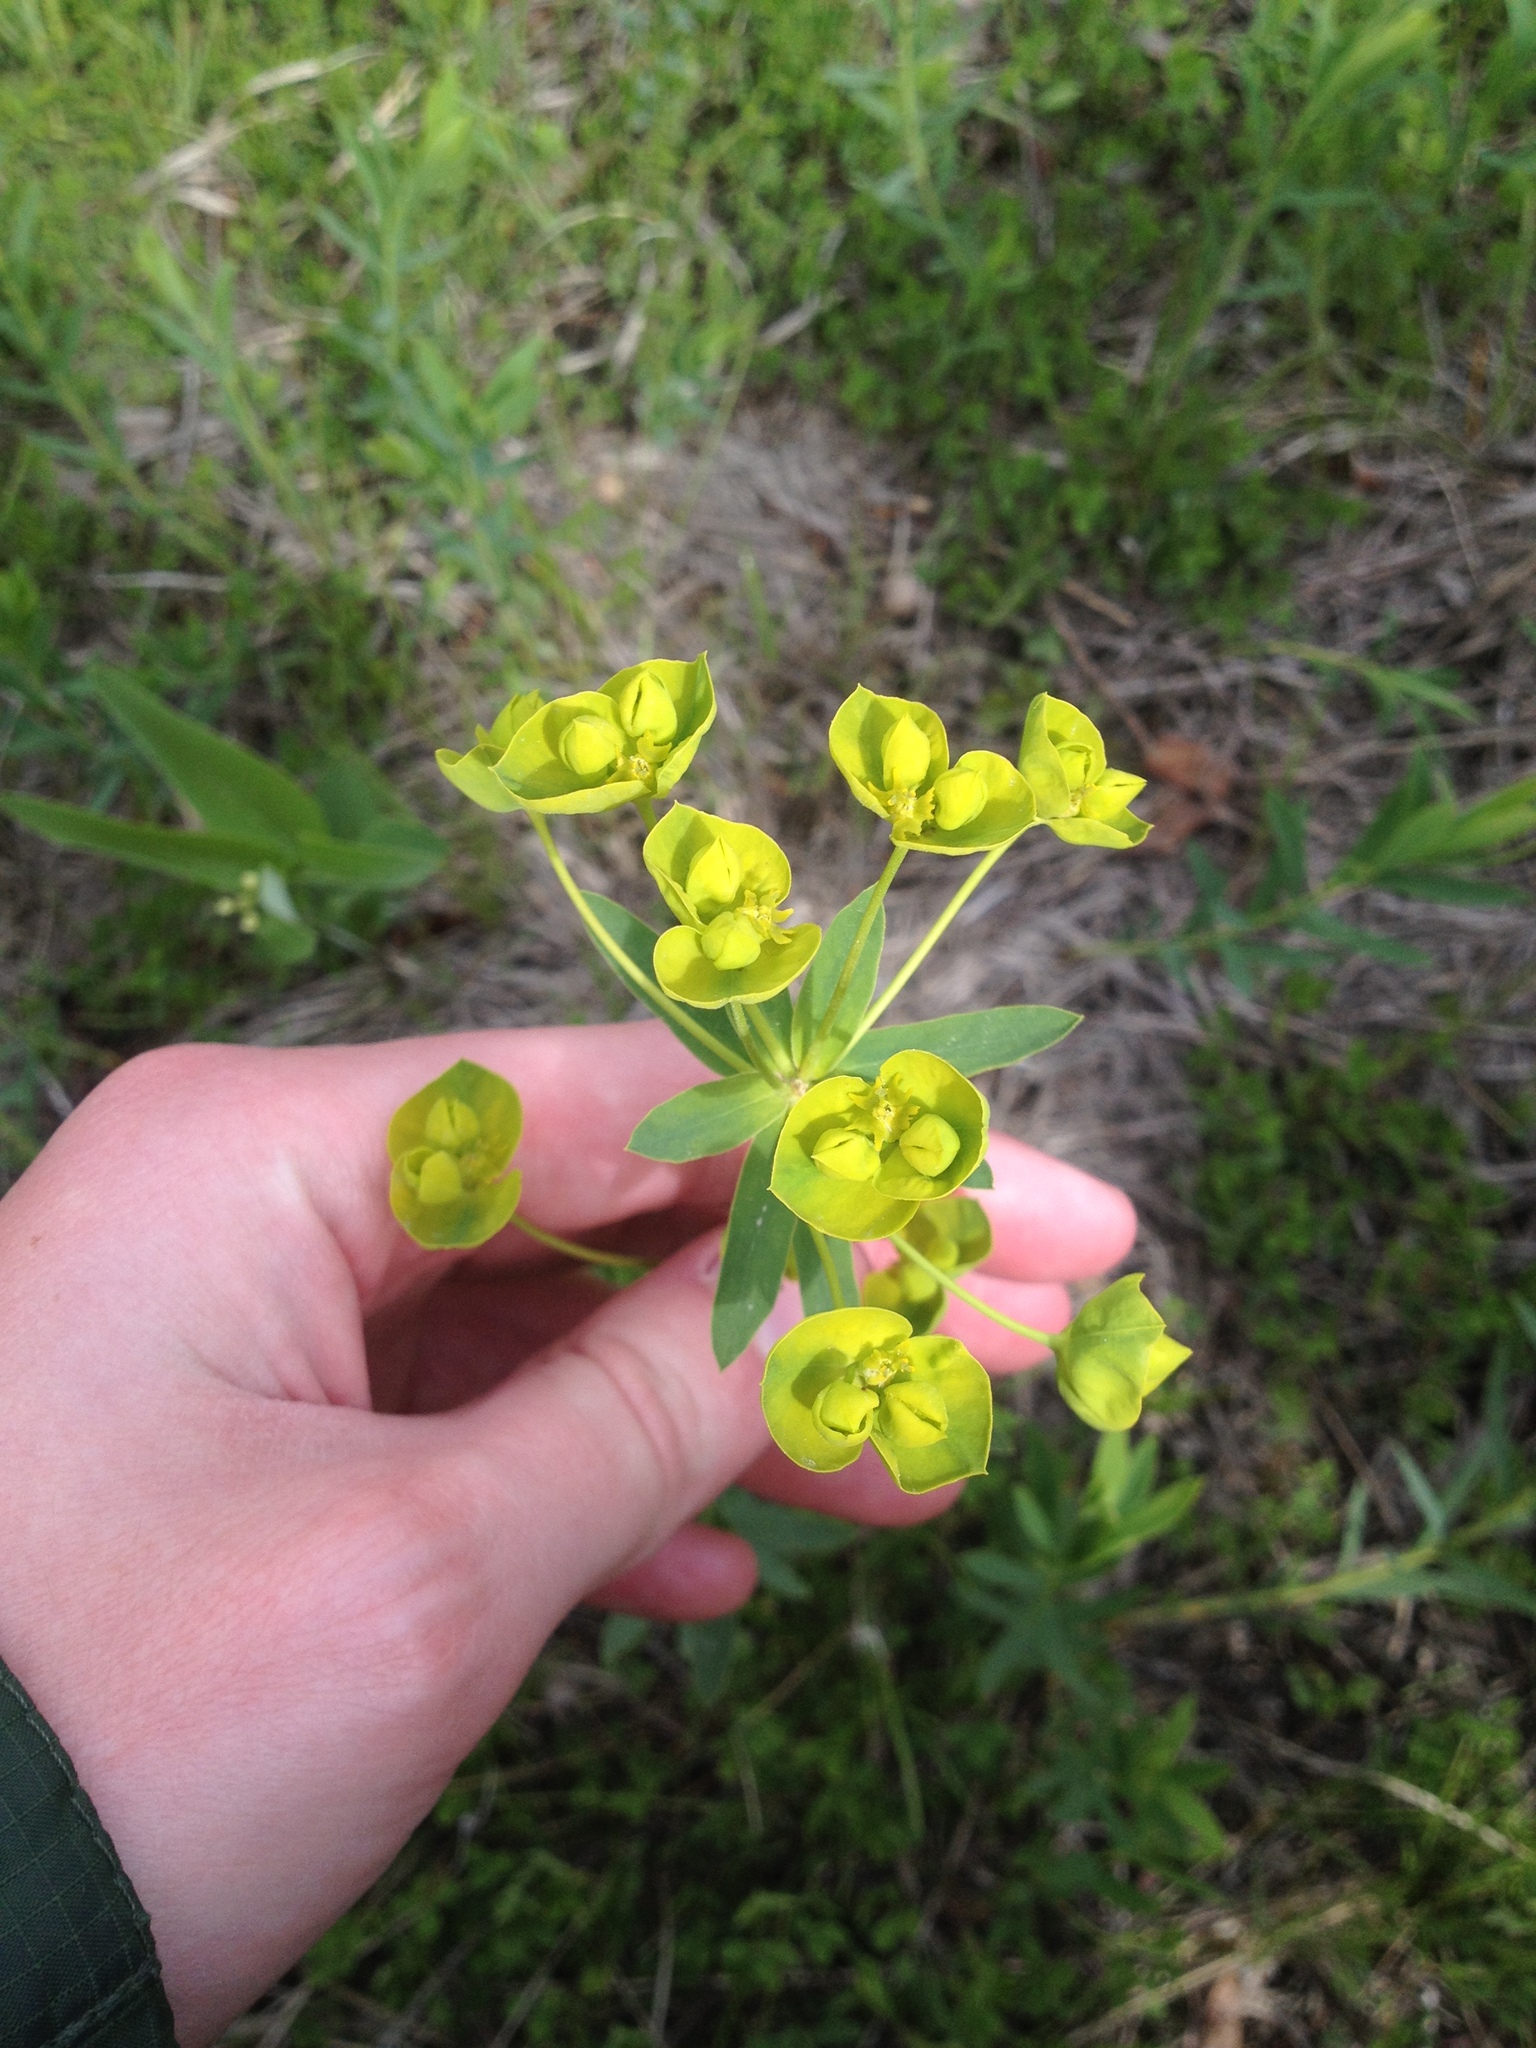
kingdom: Plantae
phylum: Tracheophyta
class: Magnoliopsida
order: Malpighiales
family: Euphorbiaceae
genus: Euphorbia
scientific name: Euphorbia virgata
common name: Leafy spurge
